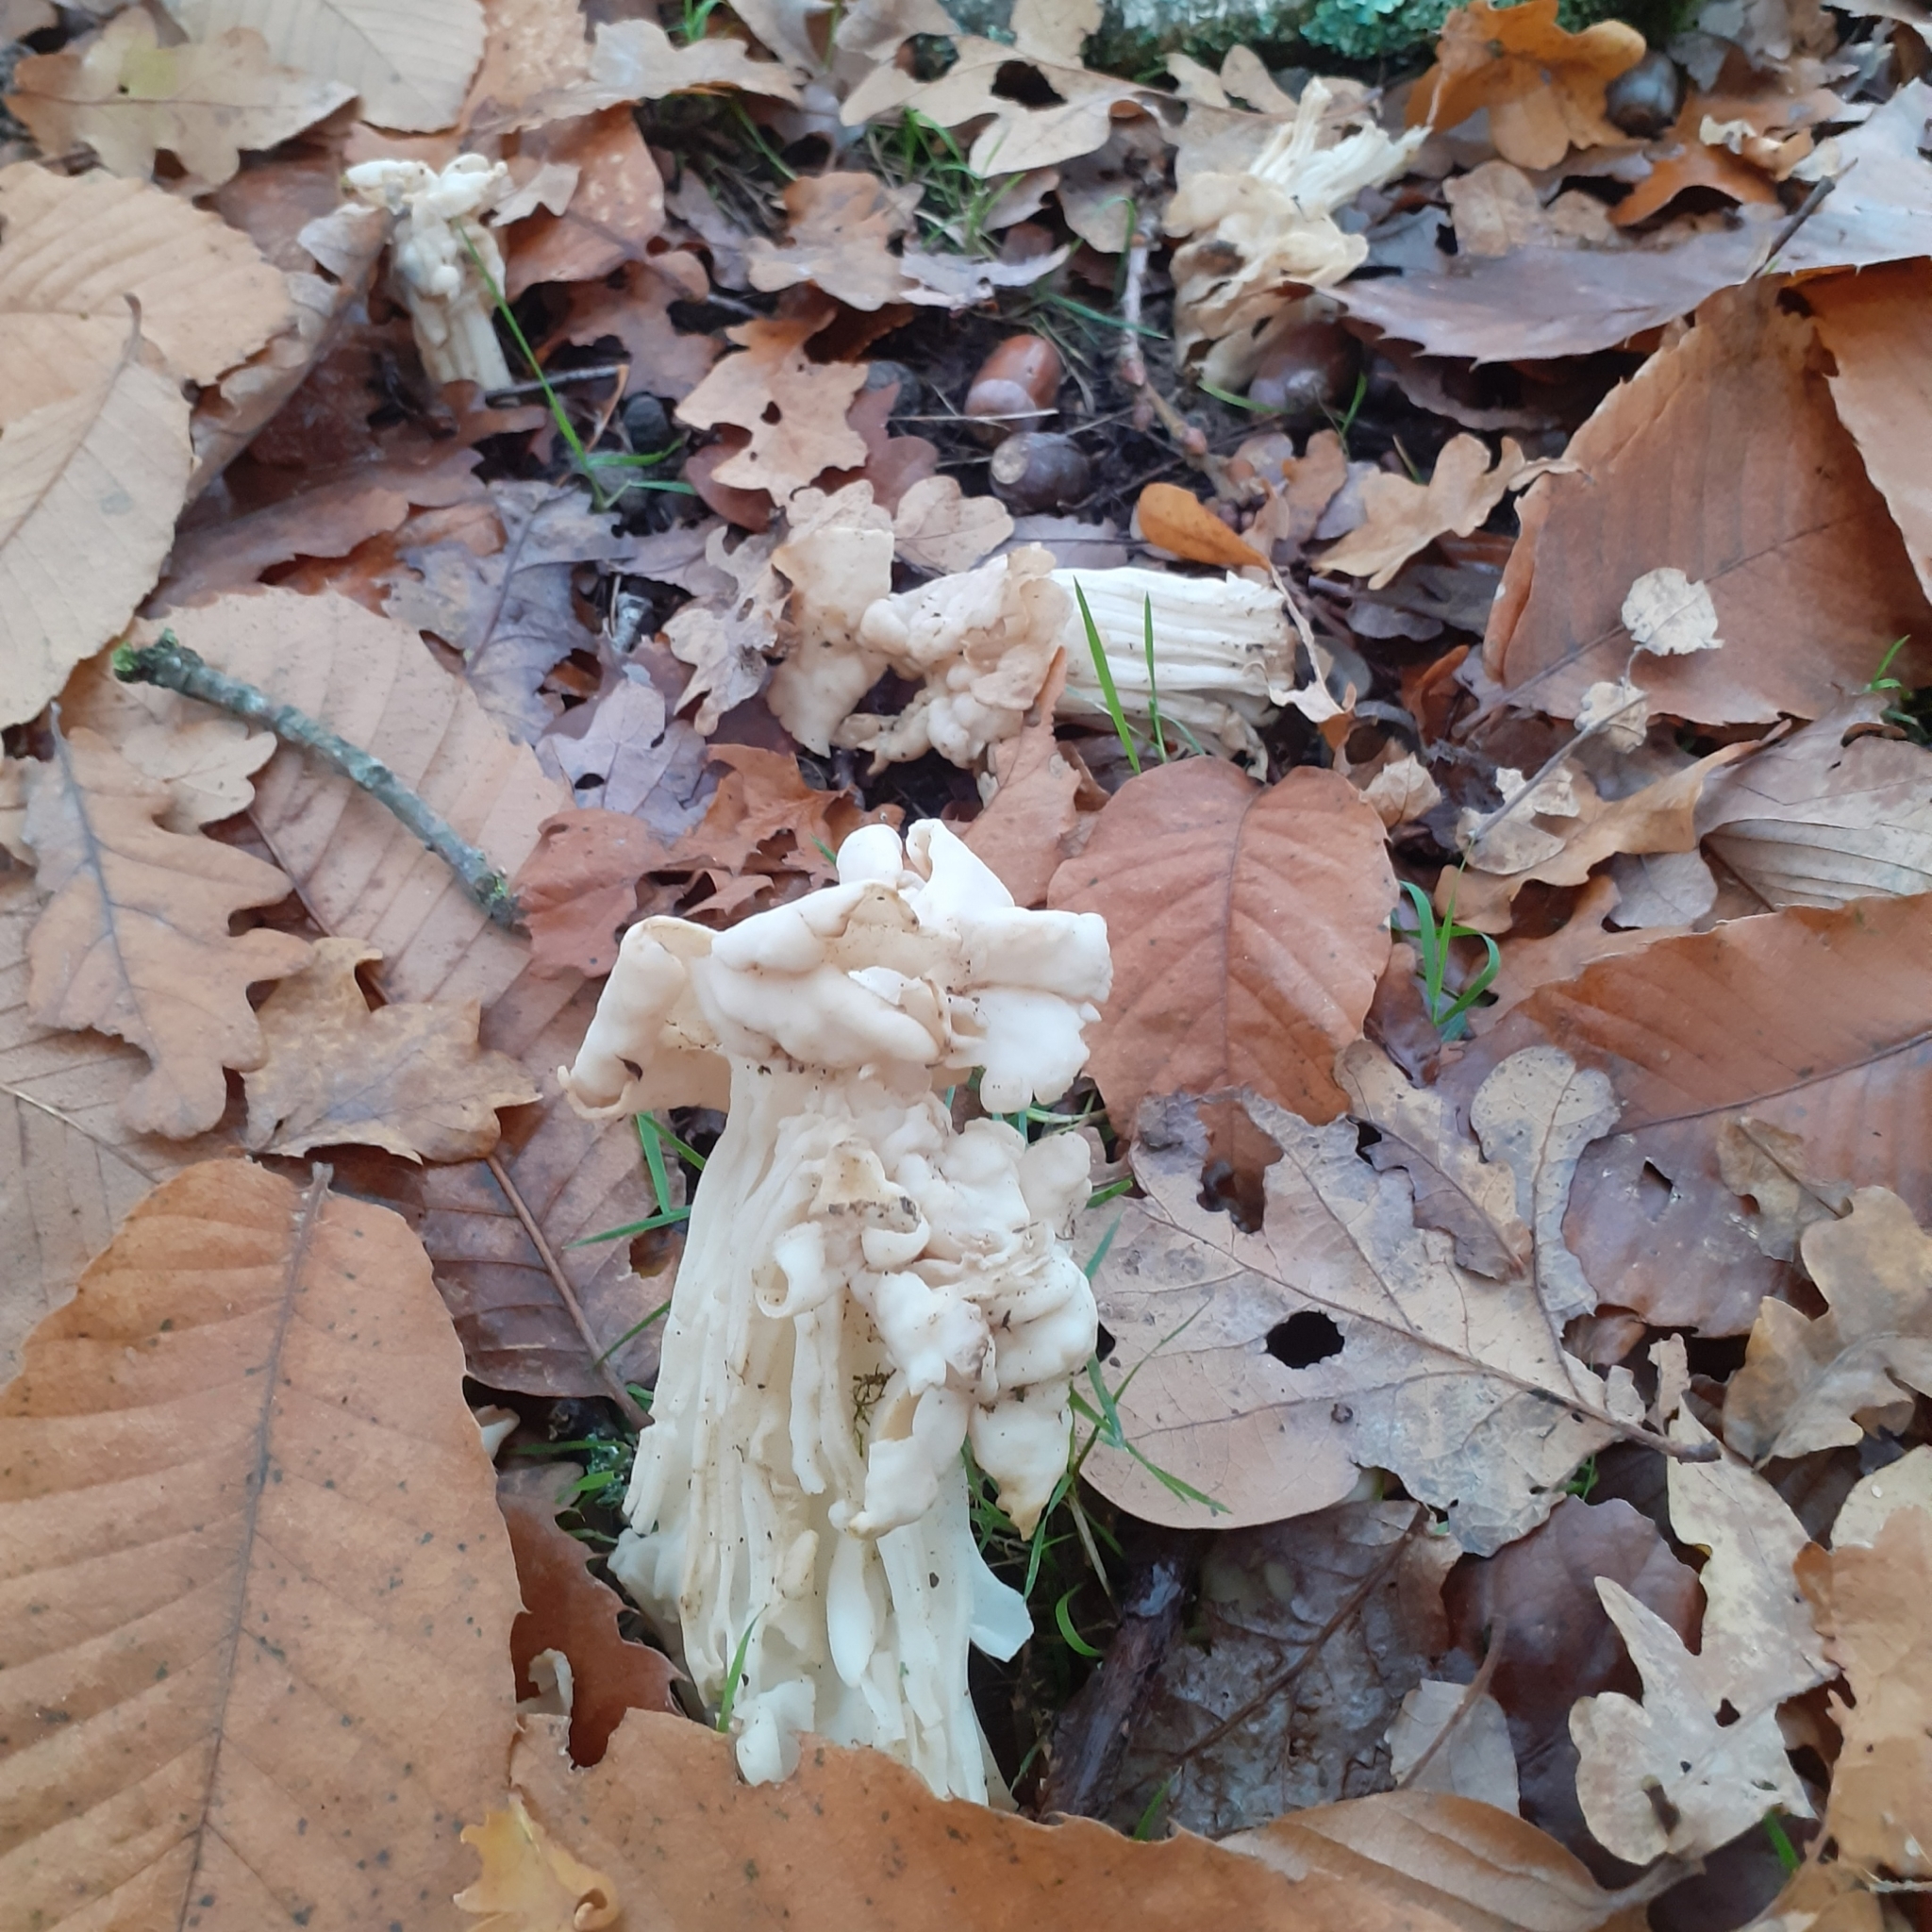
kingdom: Fungi
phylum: Ascomycota
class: Pezizomycetes
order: Pezizales
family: Helvellaceae
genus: Helvella
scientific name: Helvella crispa
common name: White saddle
